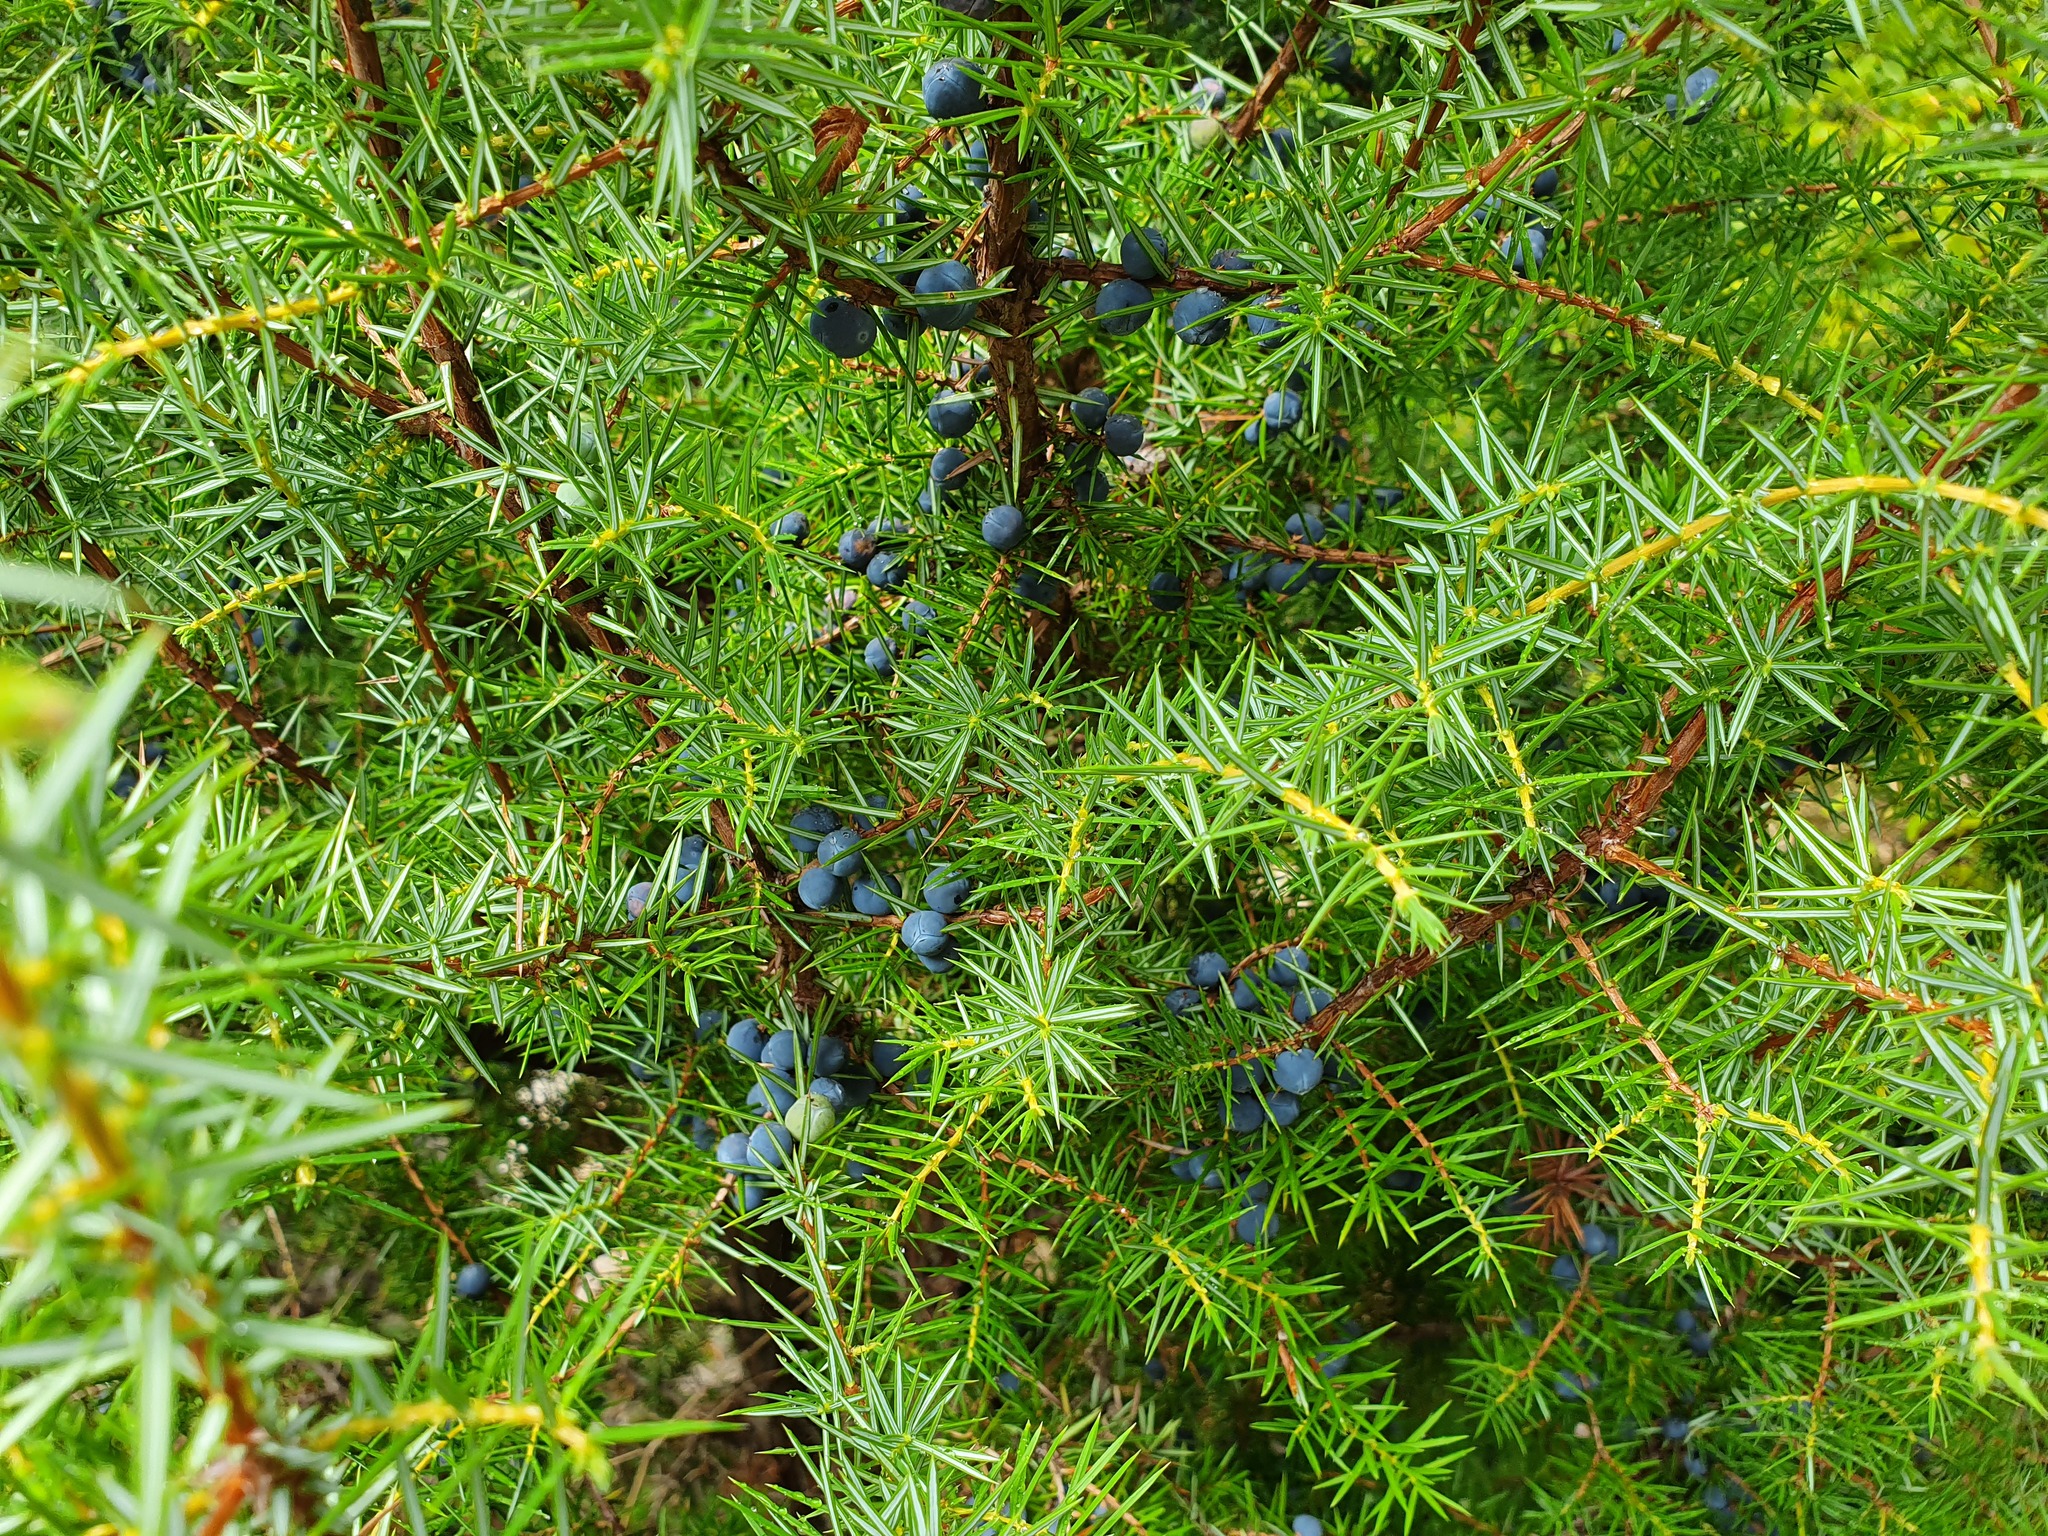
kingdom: Plantae
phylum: Tracheophyta
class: Pinopsida
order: Pinales
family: Cupressaceae
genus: Juniperus
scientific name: Juniperus communis
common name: Common juniper
